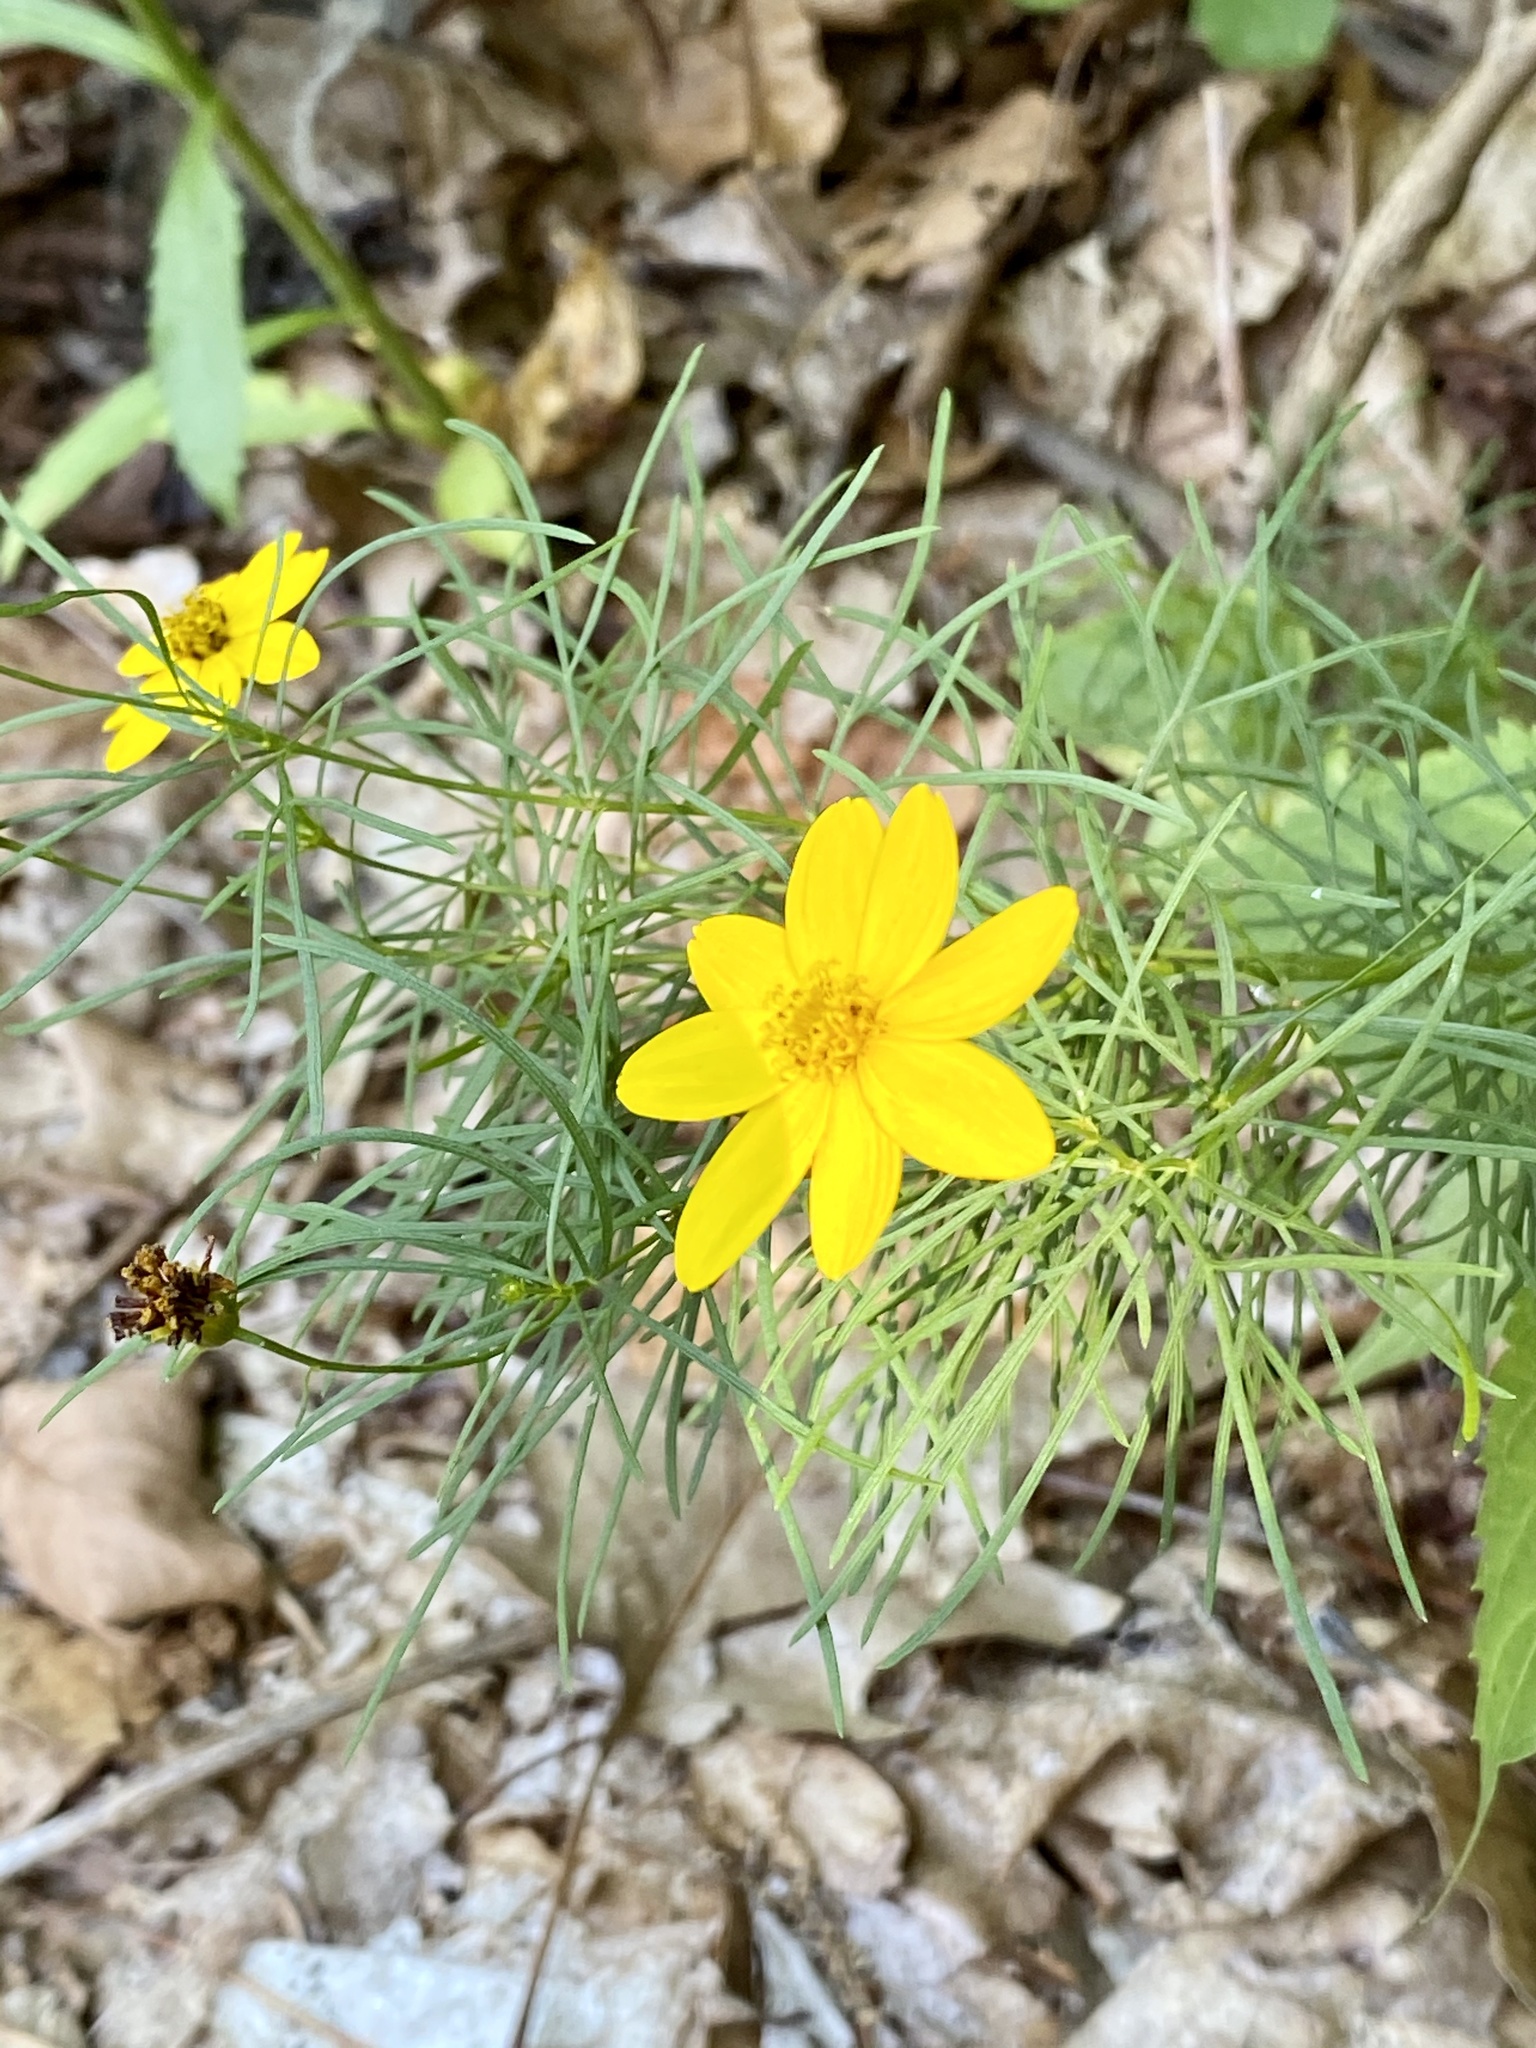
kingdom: Plantae
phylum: Tracheophyta
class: Magnoliopsida
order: Asterales
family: Asteraceae
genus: Coreopsis
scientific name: Coreopsis verticillata
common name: Whorled tickseed
